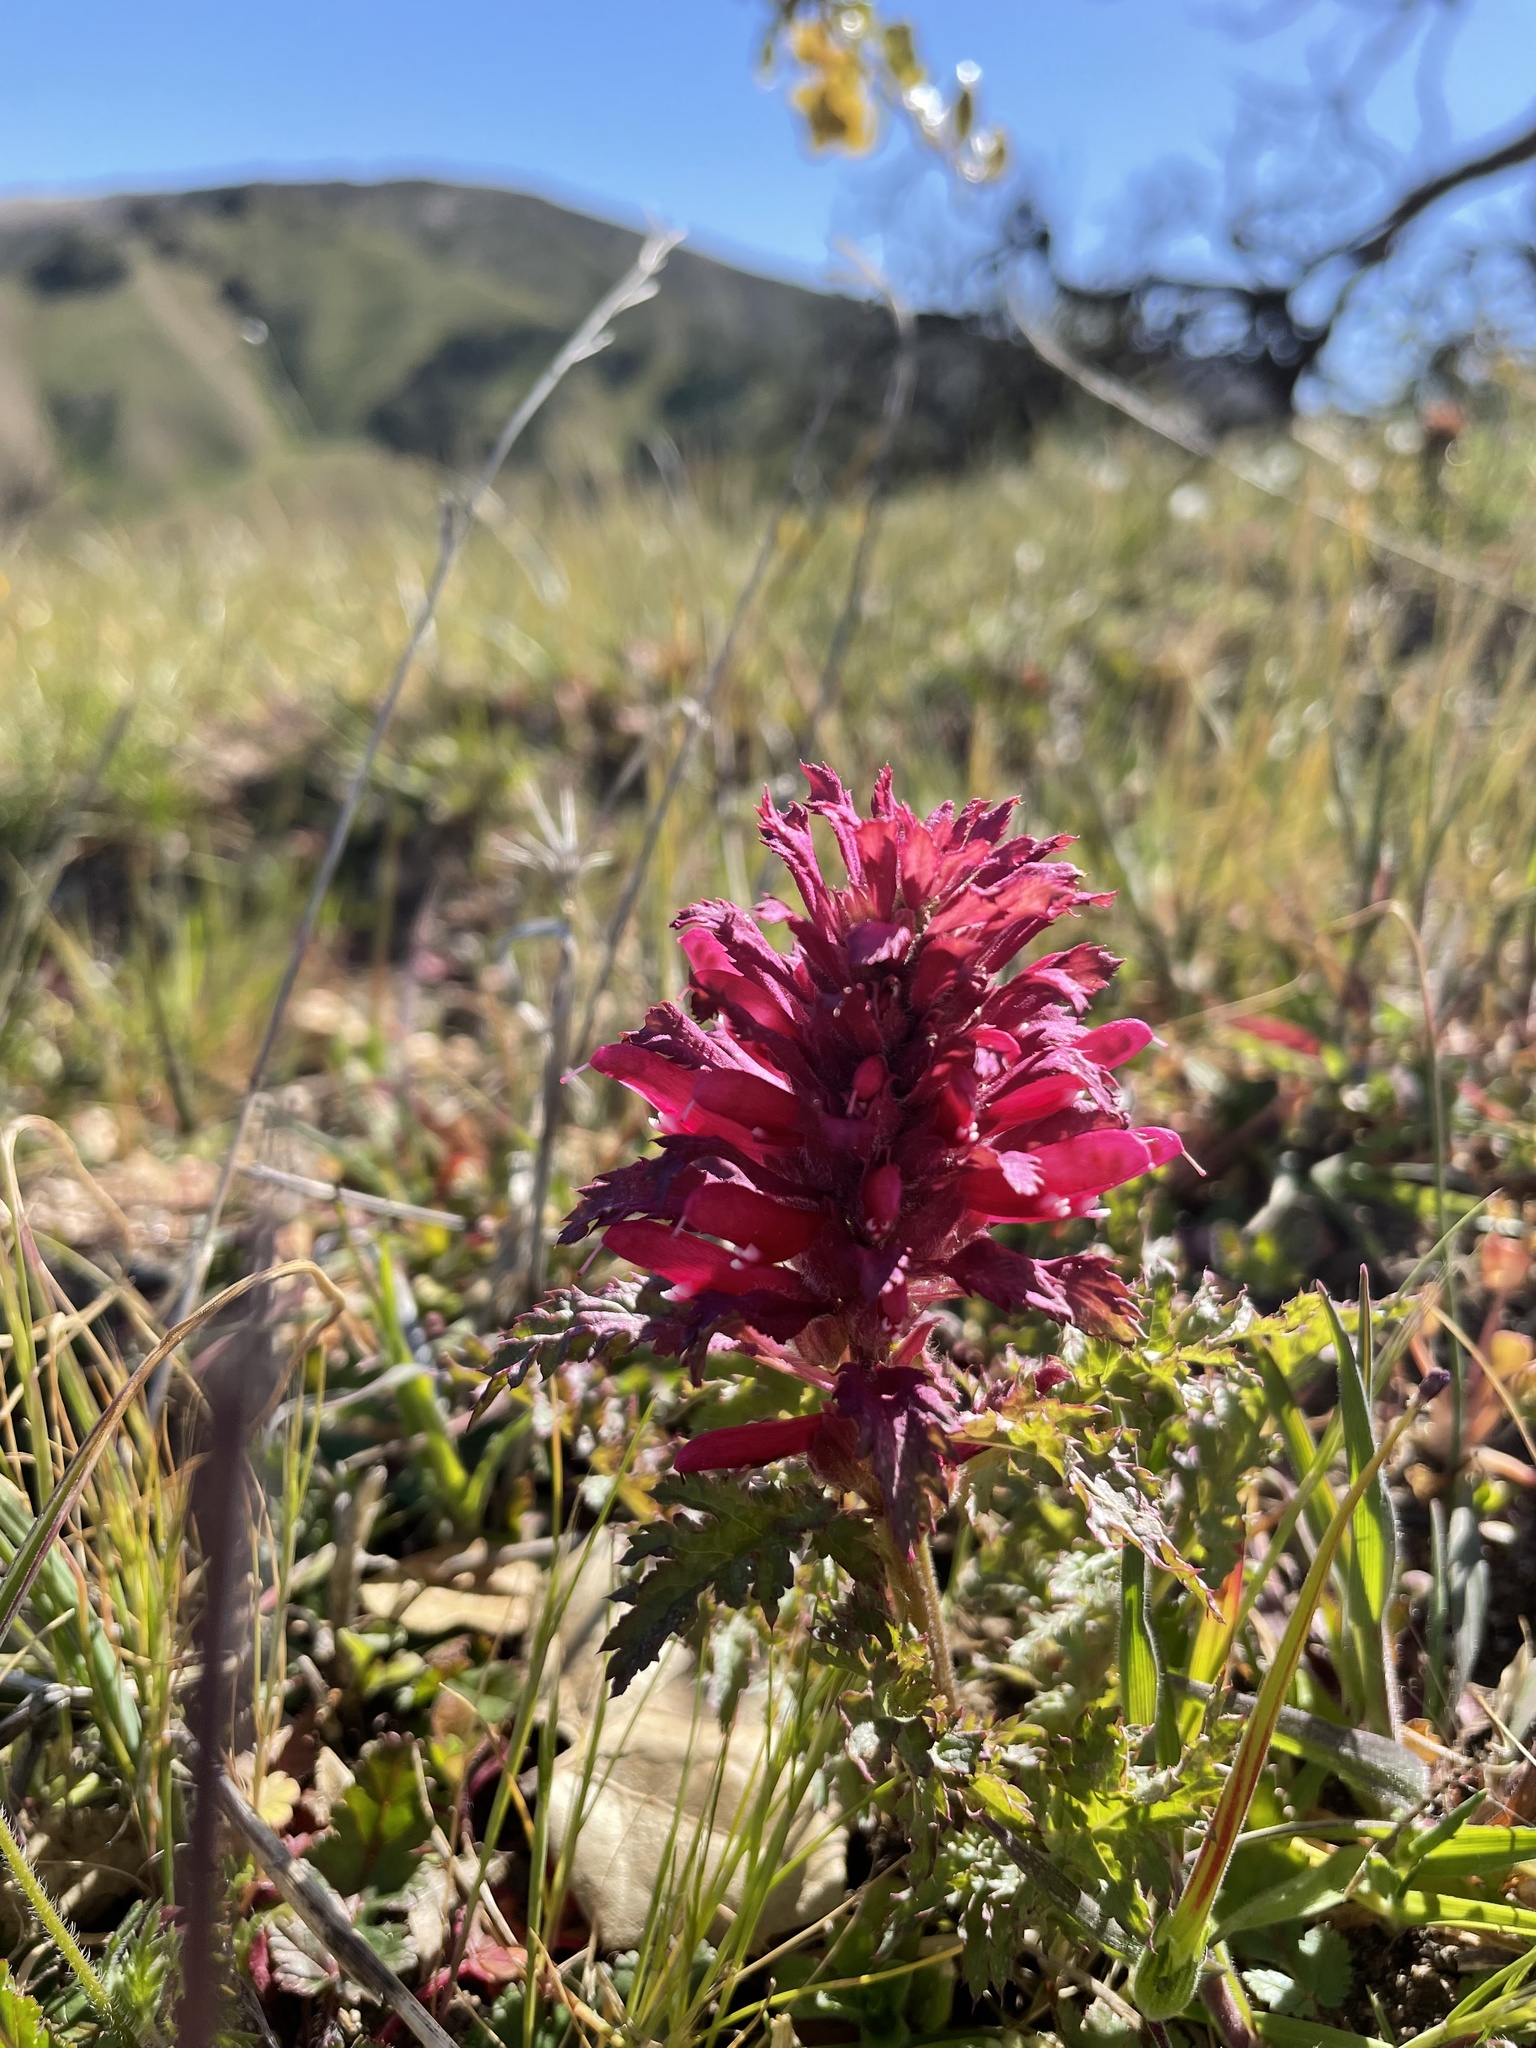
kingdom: Plantae
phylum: Tracheophyta
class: Magnoliopsida
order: Lamiales
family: Orobanchaceae
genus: Pedicularis
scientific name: Pedicularis densiflora
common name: Indian warrior
